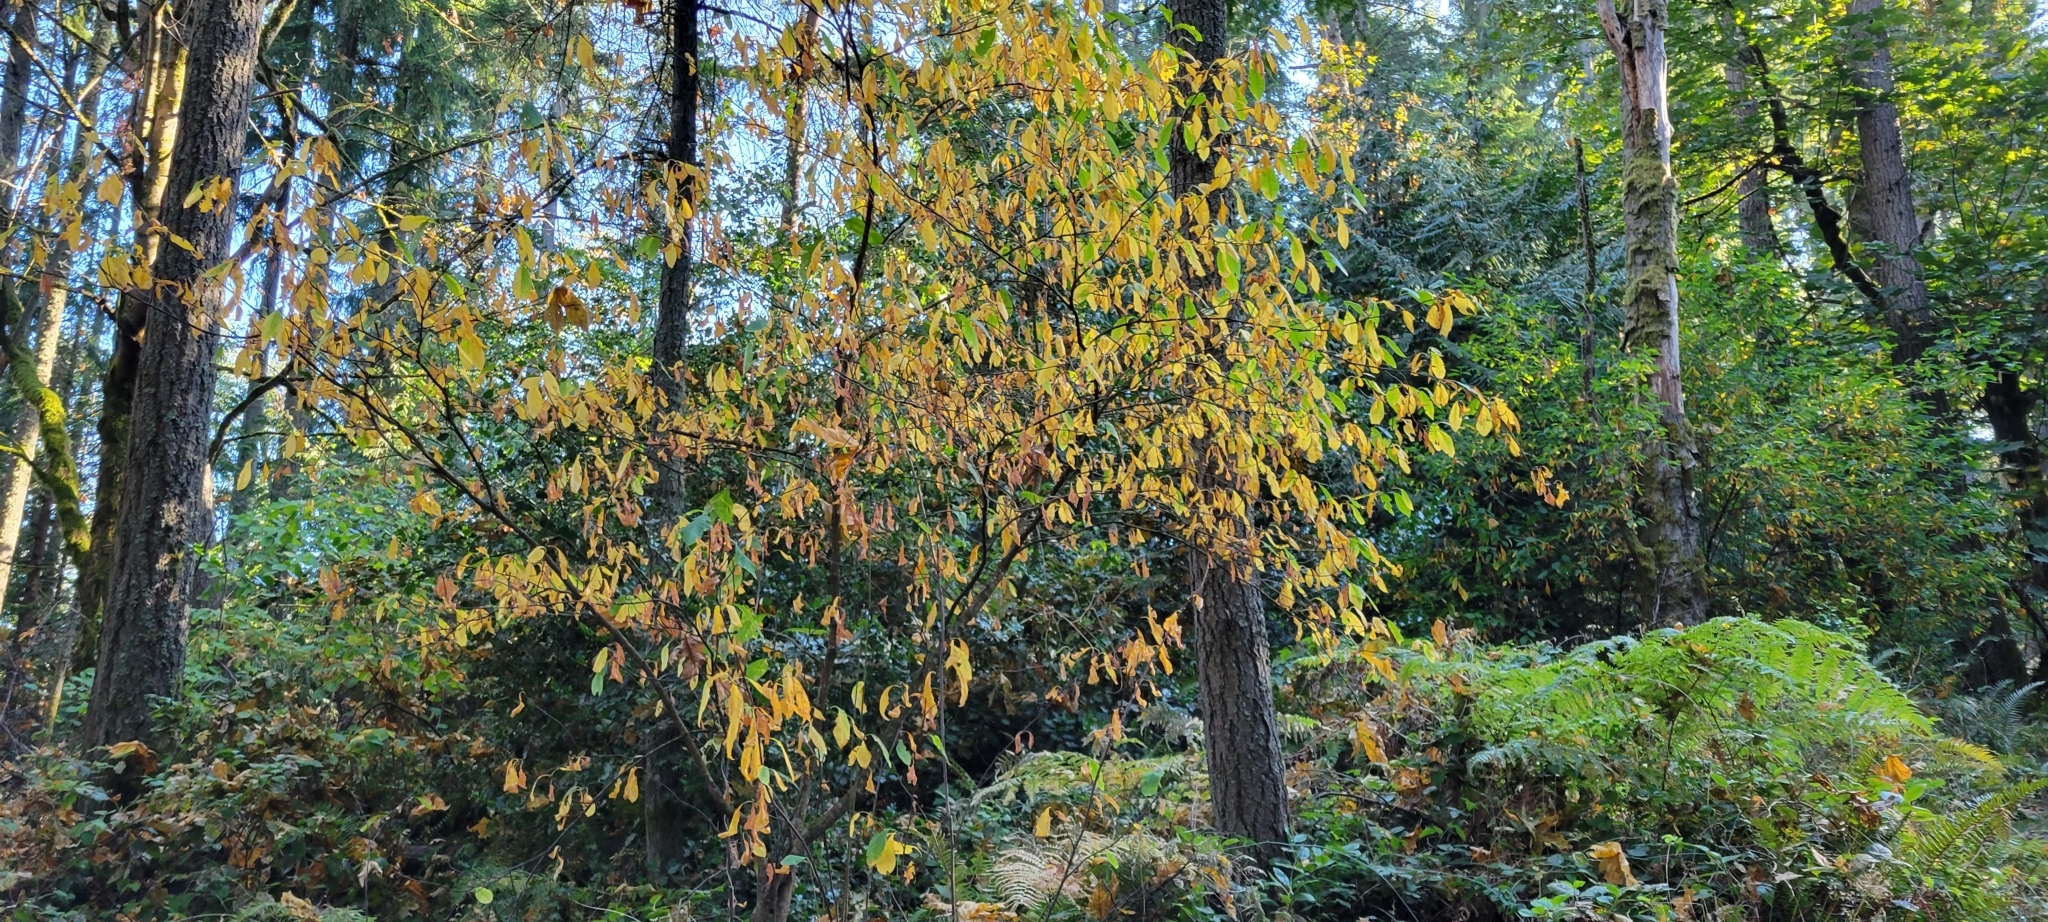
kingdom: Plantae
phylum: Tracheophyta
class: Magnoliopsida
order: Rosales
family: Rosaceae
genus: Oemleria
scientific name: Oemleria cerasiformis
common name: Osoberry
